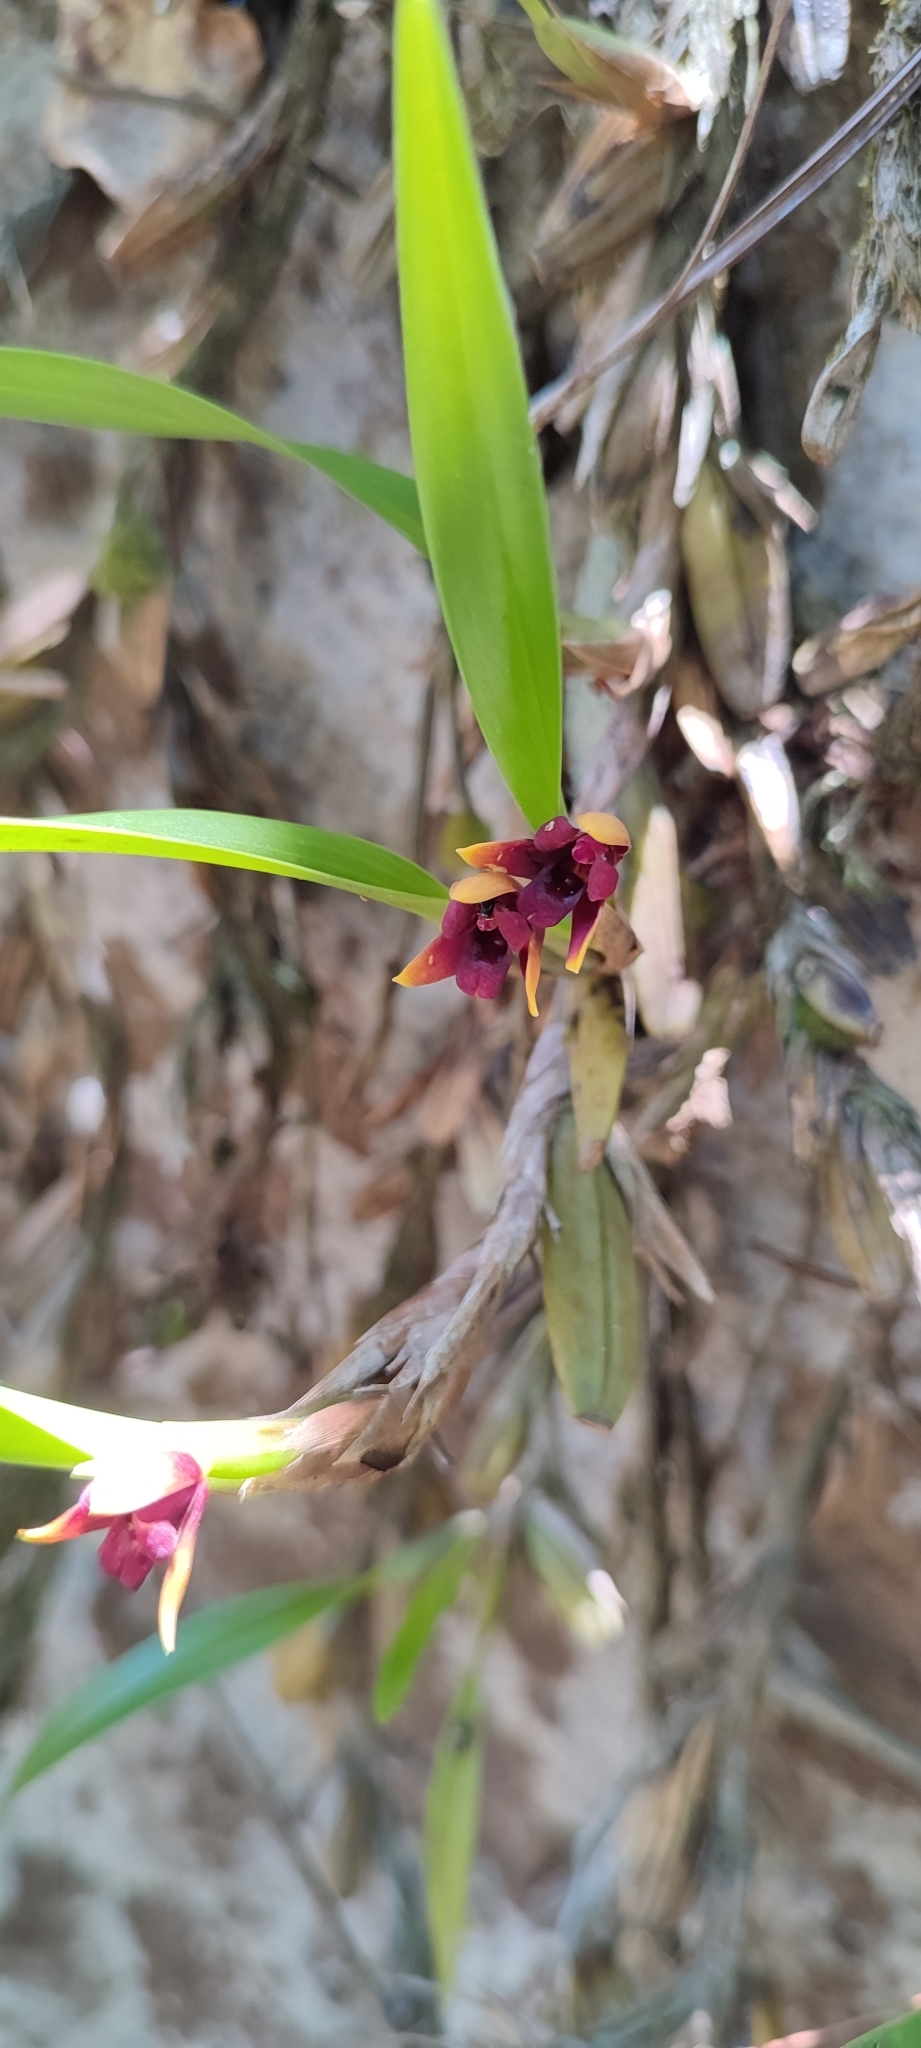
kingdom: Plantae
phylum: Tracheophyta
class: Liliopsida
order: Asparagales
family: Orchidaceae
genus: Maxillaria
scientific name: Maxillaria variabilis
